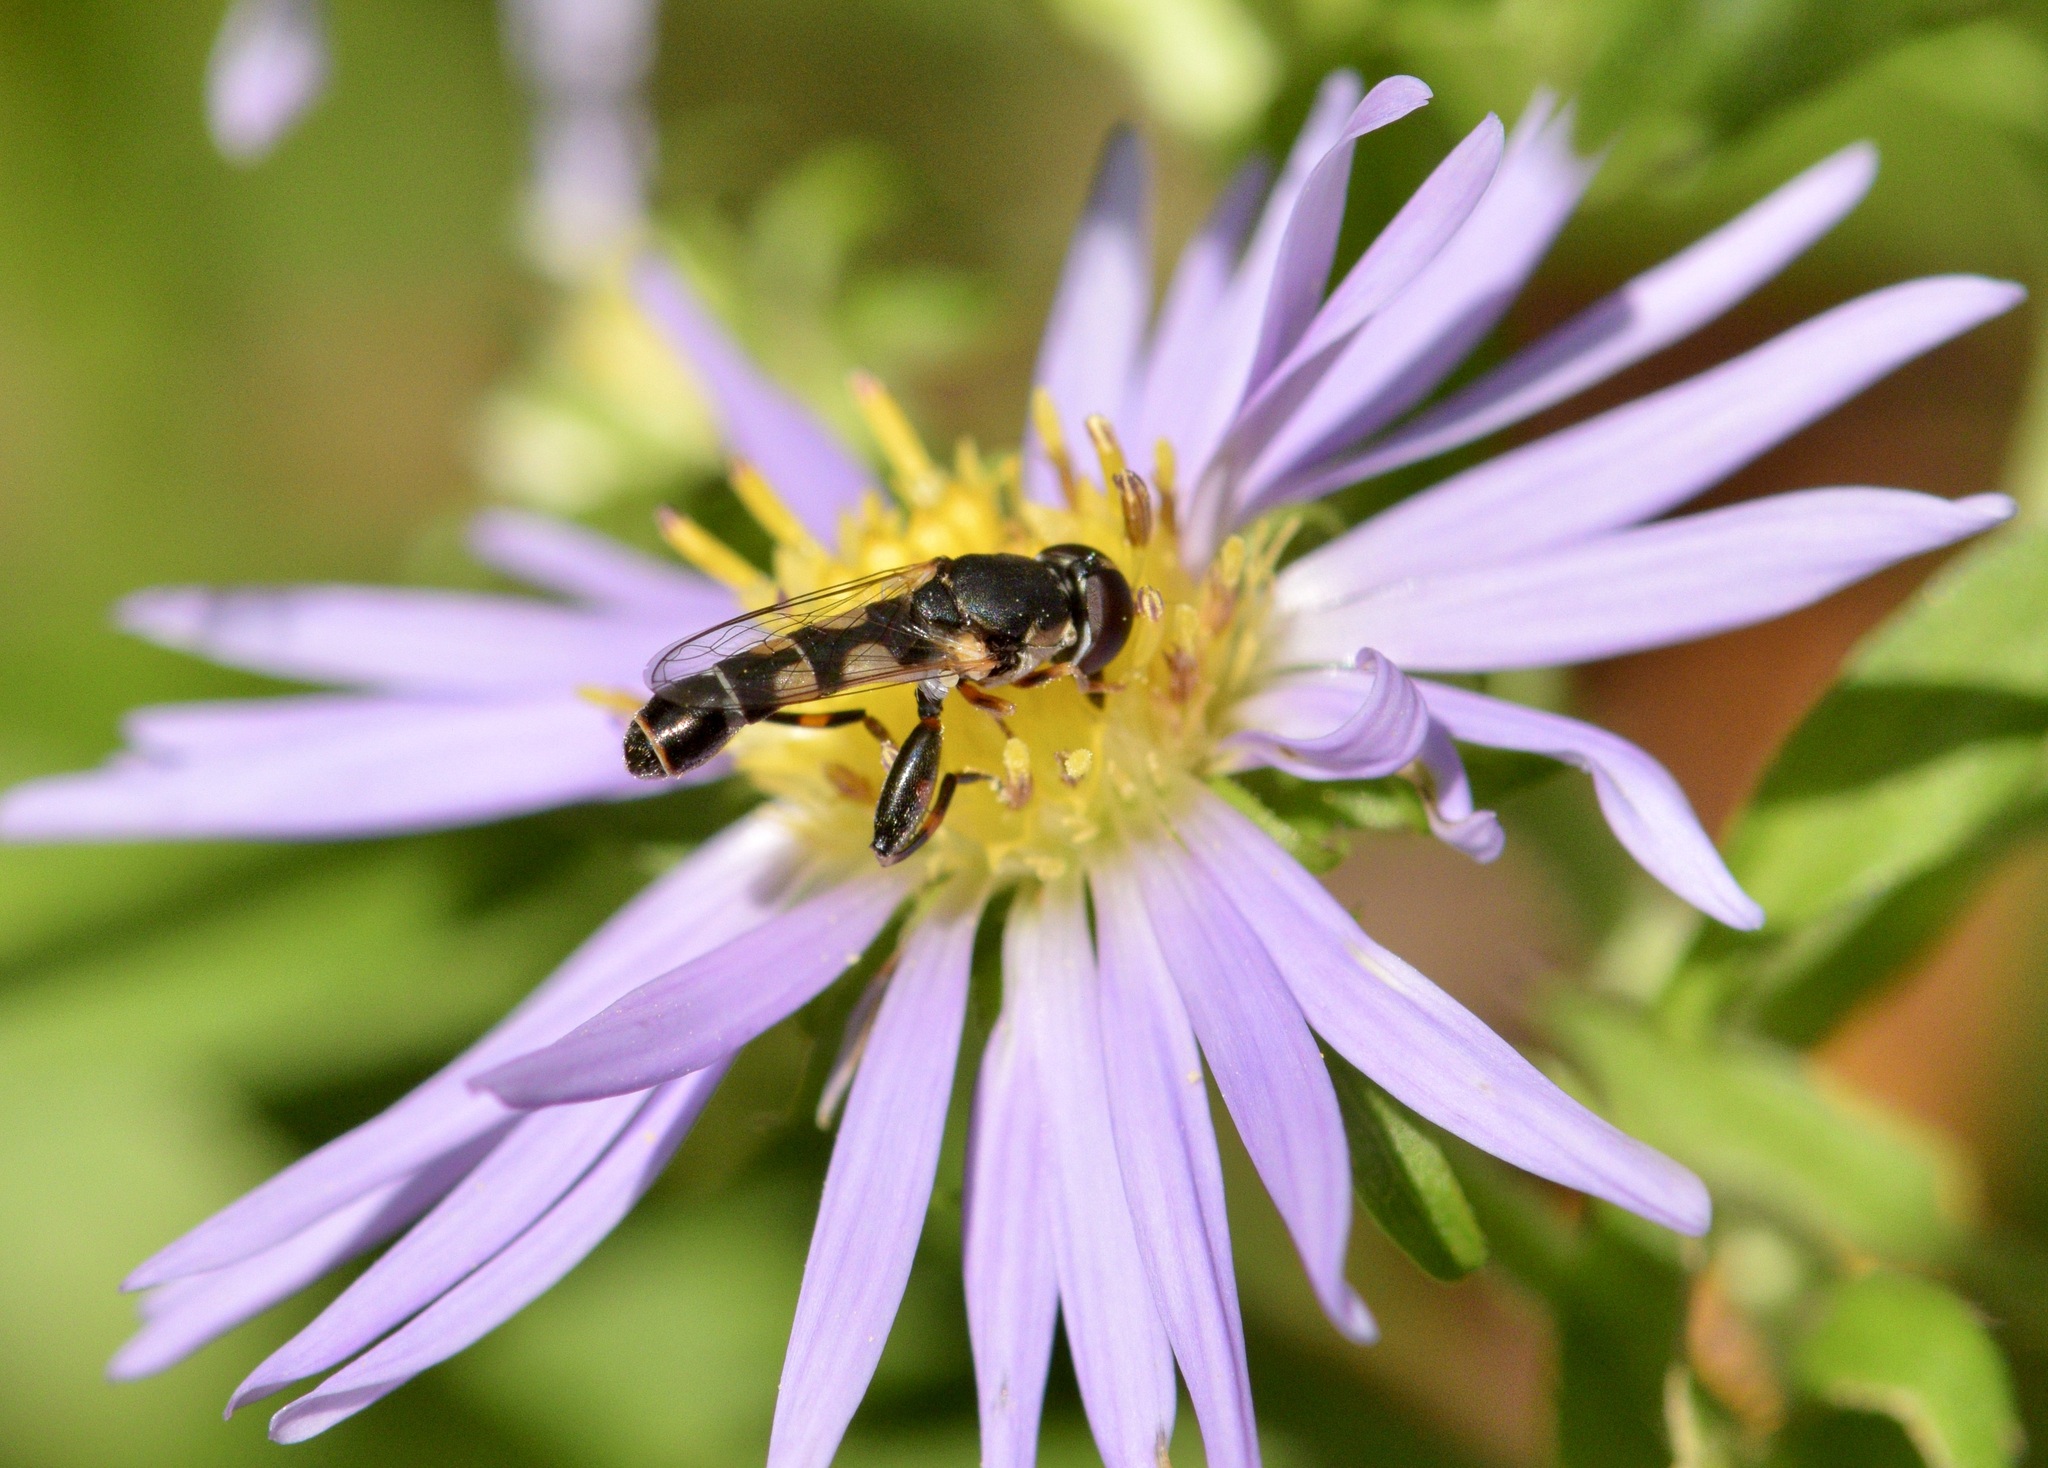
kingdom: Animalia
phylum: Arthropoda
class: Insecta
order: Diptera
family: Syrphidae
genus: Syritta
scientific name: Syritta pipiens
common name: Hover fly
